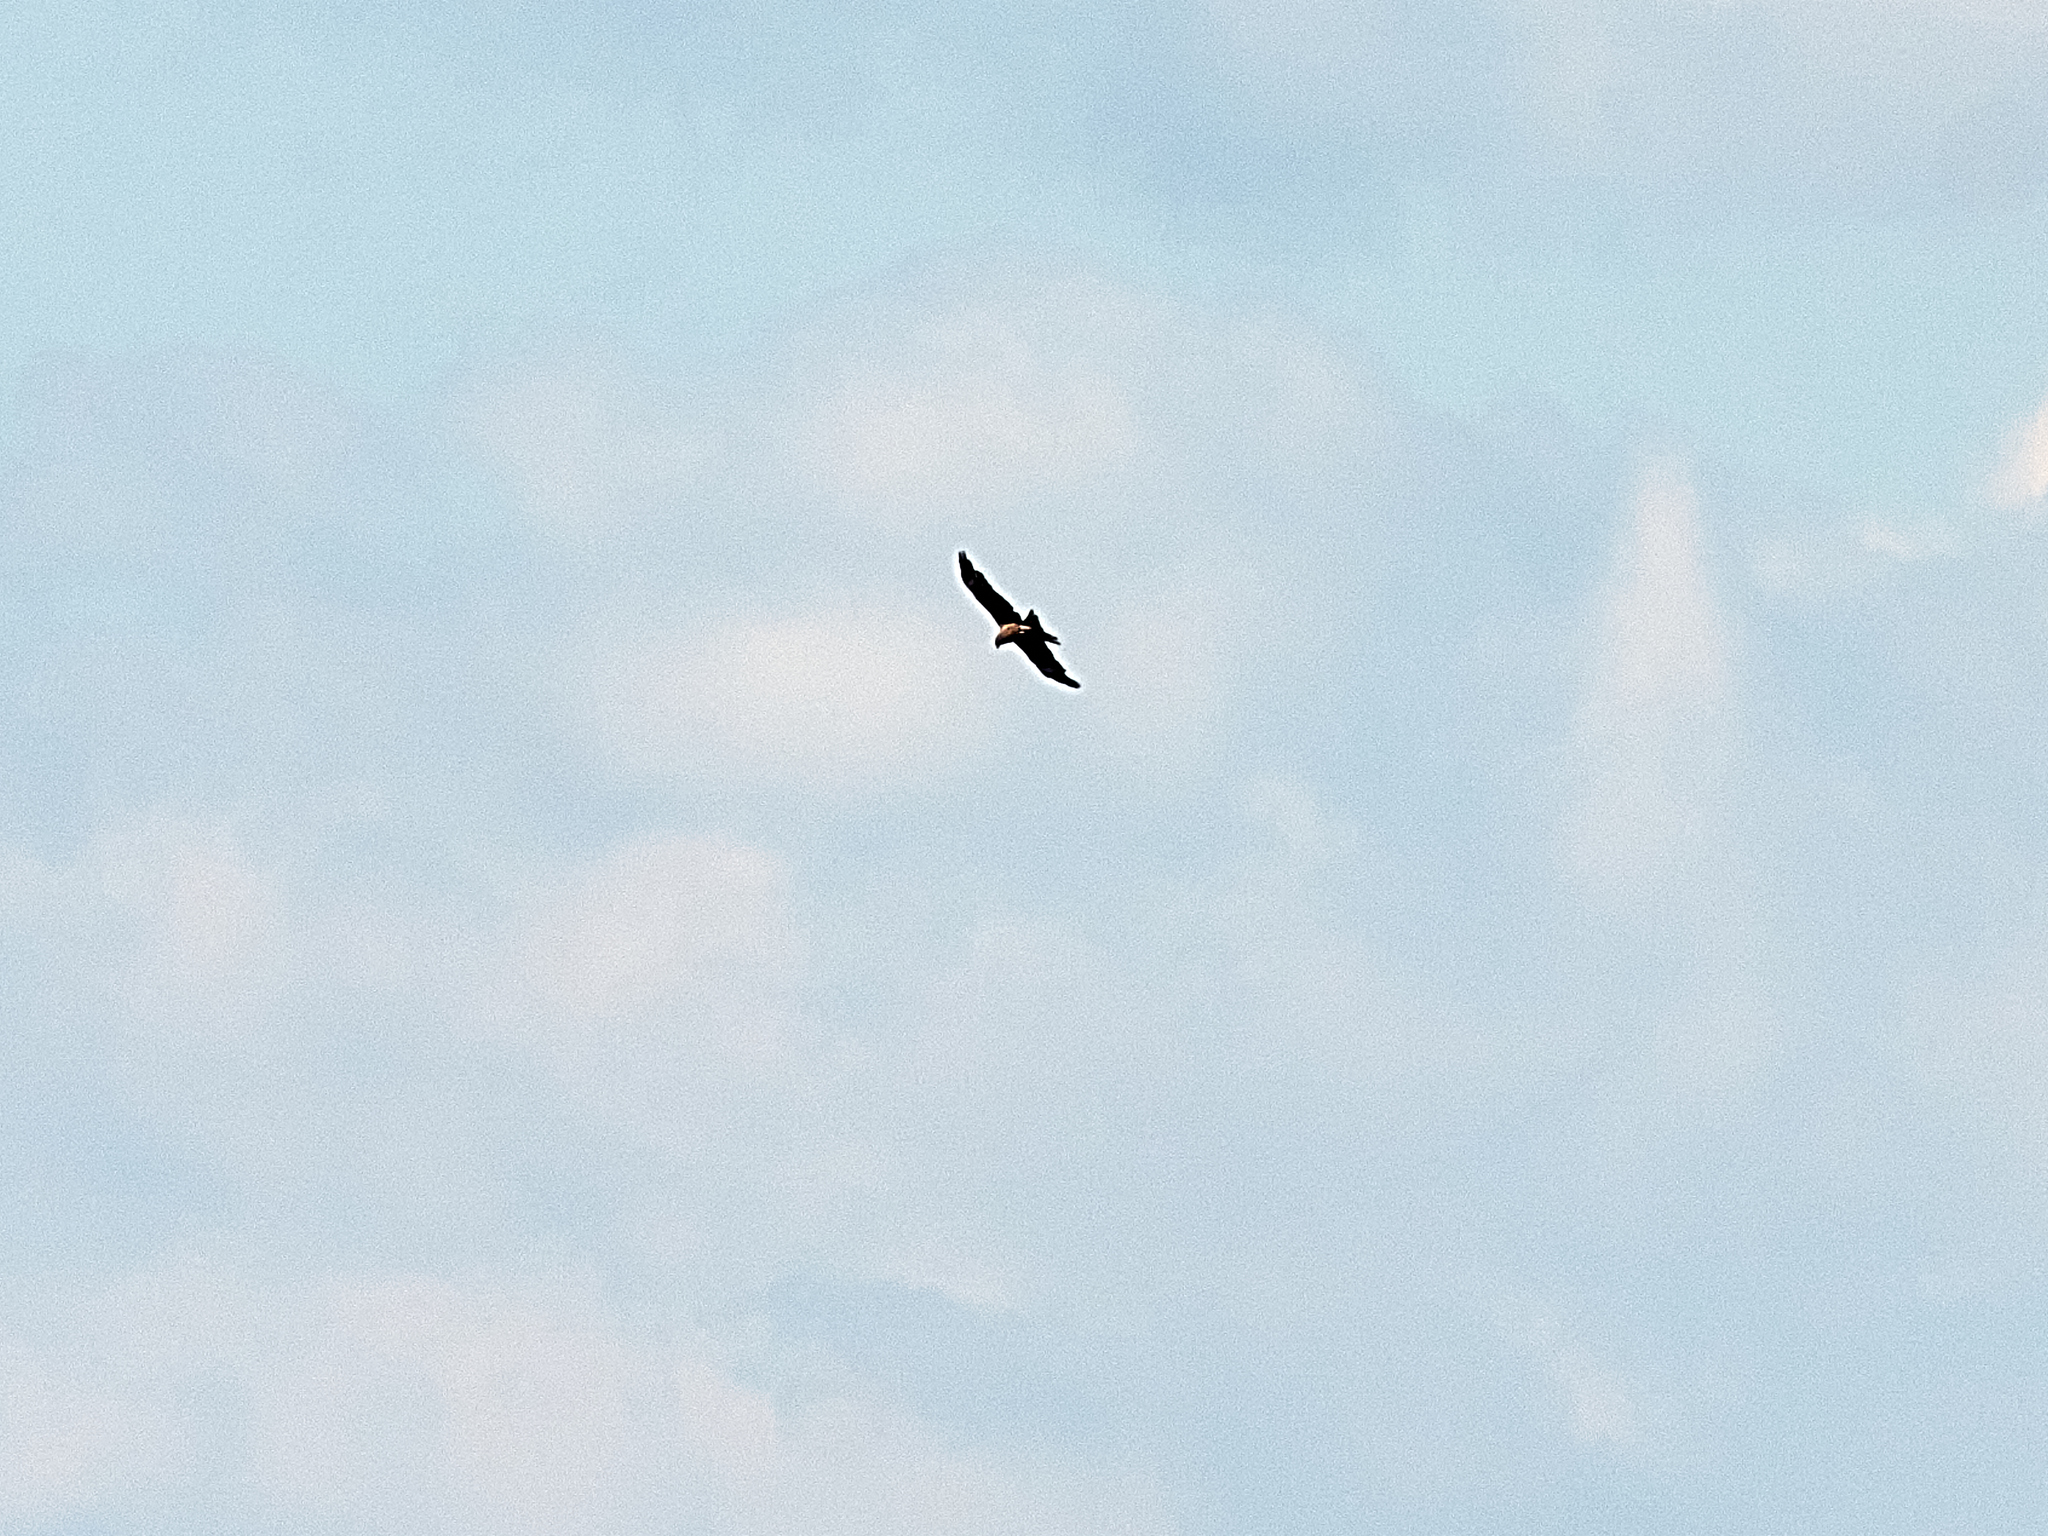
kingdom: Animalia
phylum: Chordata
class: Aves
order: Accipitriformes
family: Accipitridae
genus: Milvus
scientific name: Milvus migrans
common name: Black kite
